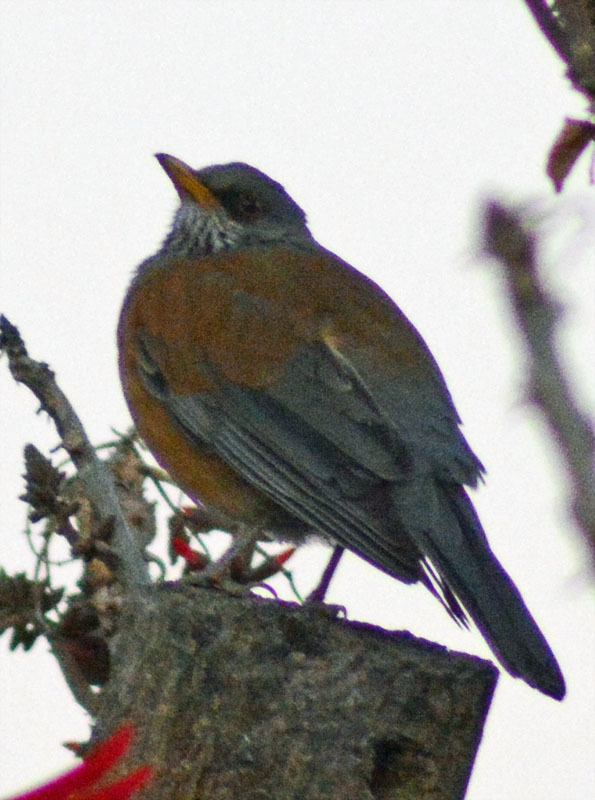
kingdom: Animalia
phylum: Chordata
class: Aves
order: Passeriformes
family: Turdidae
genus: Turdus
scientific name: Turdus rufopalliatus
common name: Rufous-backed robin
